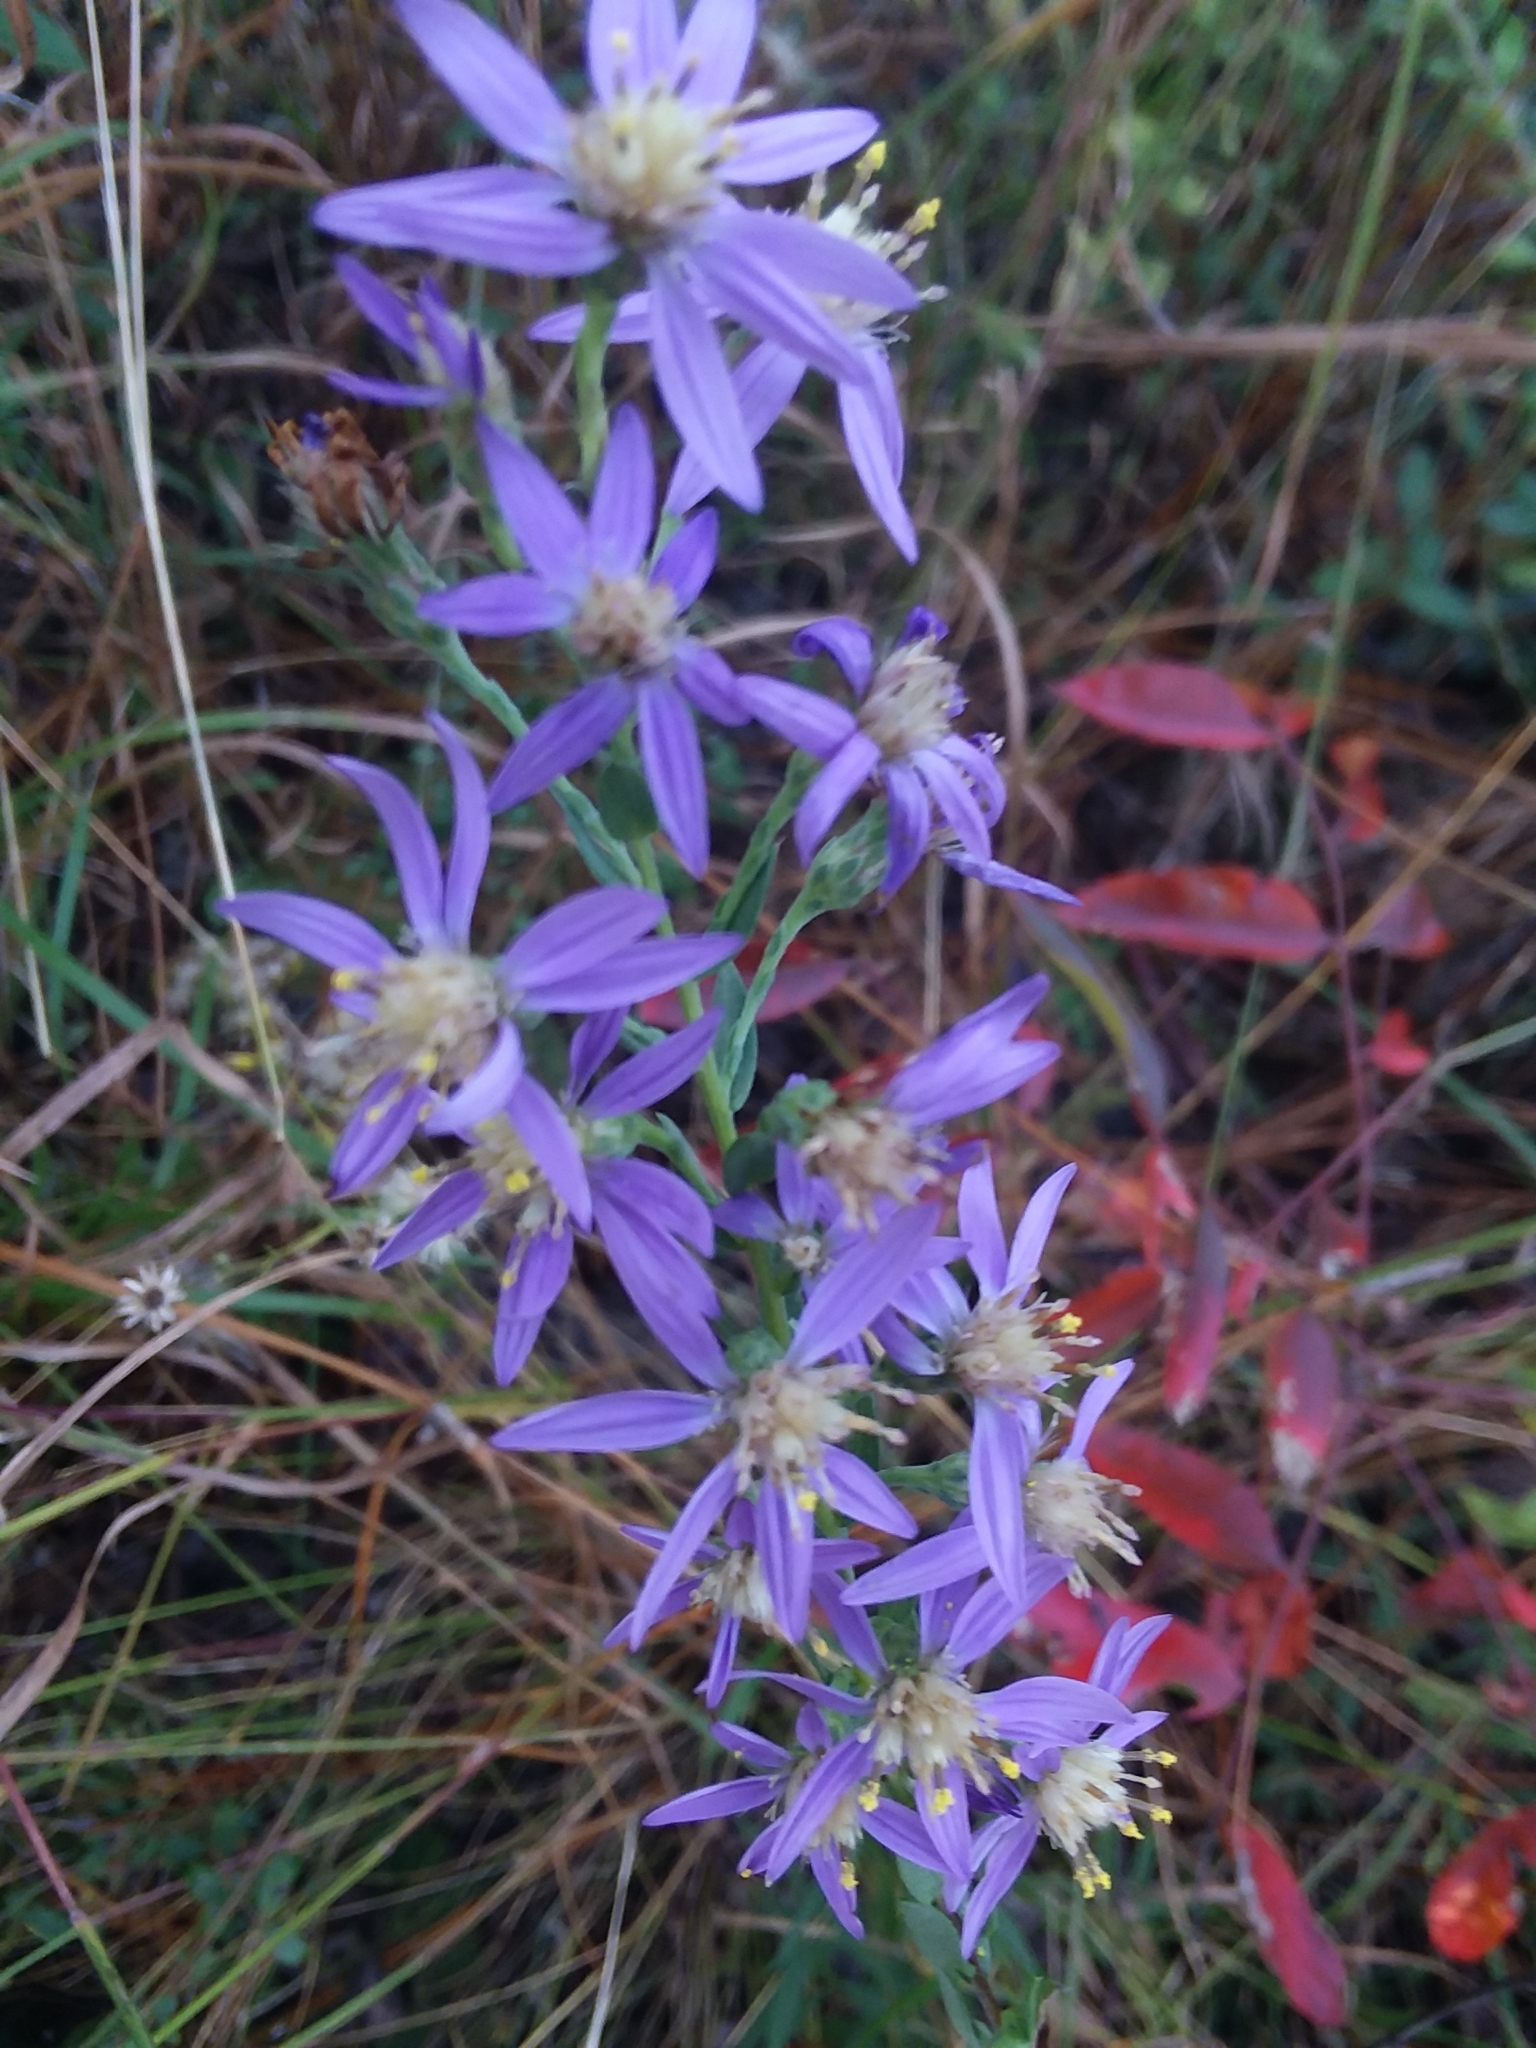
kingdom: Plantae
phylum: Tracheophyta
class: Magnoliopsida
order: Asterales
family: Asteraceae
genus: Symphyotrichum
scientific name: Symphyotrichum concolor
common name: Eastern silver aster
